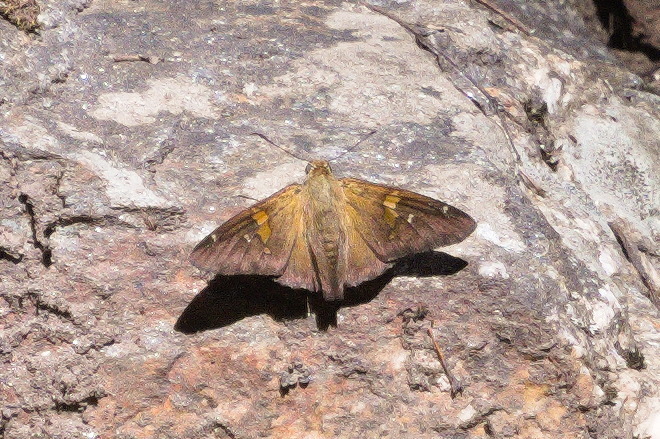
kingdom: Animalia
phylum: Arthropoda
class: Insecta
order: Lepidoptera
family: Hesperiidae
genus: Epargyreus
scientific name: Epargyreus clarus
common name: Silver-spotted skipper
